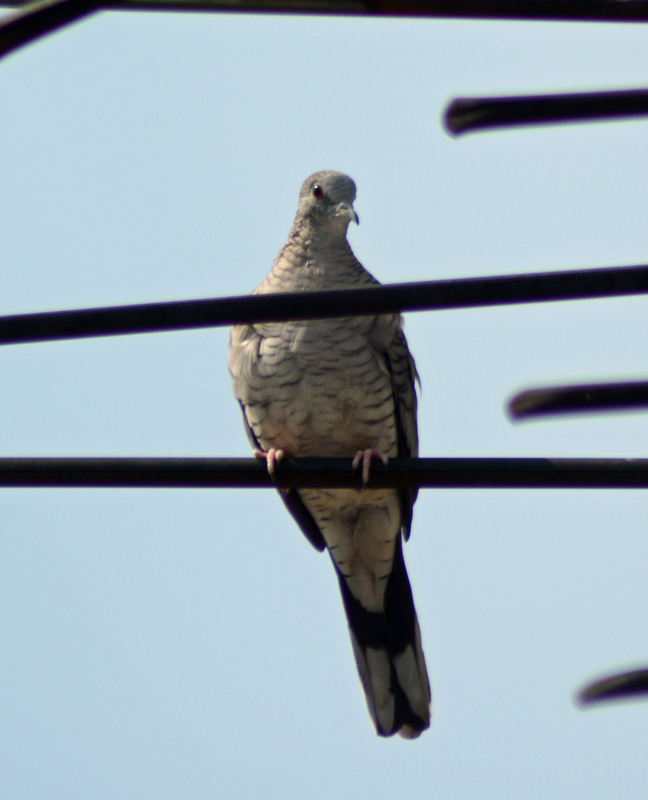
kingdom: Animalia
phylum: Chordata
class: Aves
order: Columbiformes
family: Columbidae
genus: Columbina
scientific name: Columbina inca
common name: Inca dove
